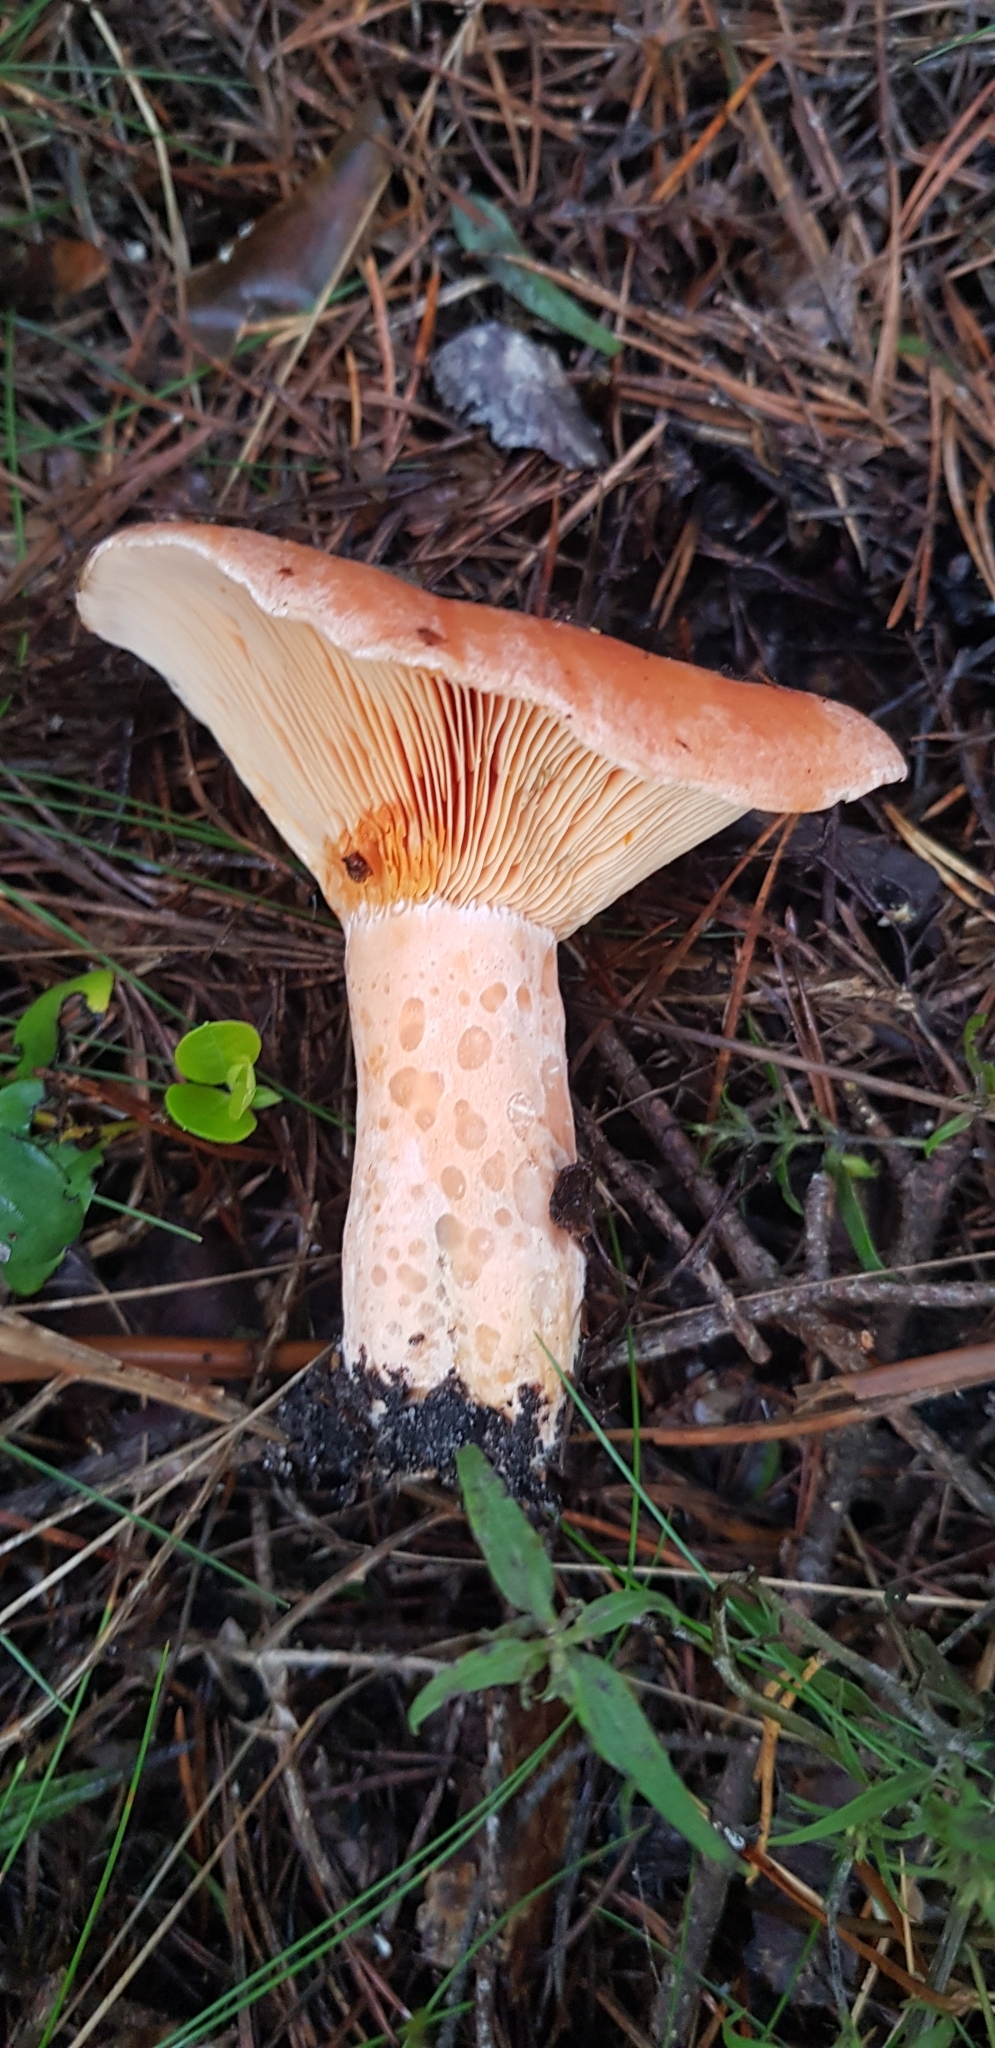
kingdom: Fungi
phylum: Basidiomycota
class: Agaricomycetes
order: Russulales
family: Russulaceae
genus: Lactarius
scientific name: Lactarius deliciosus
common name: Saffron milk-cap
